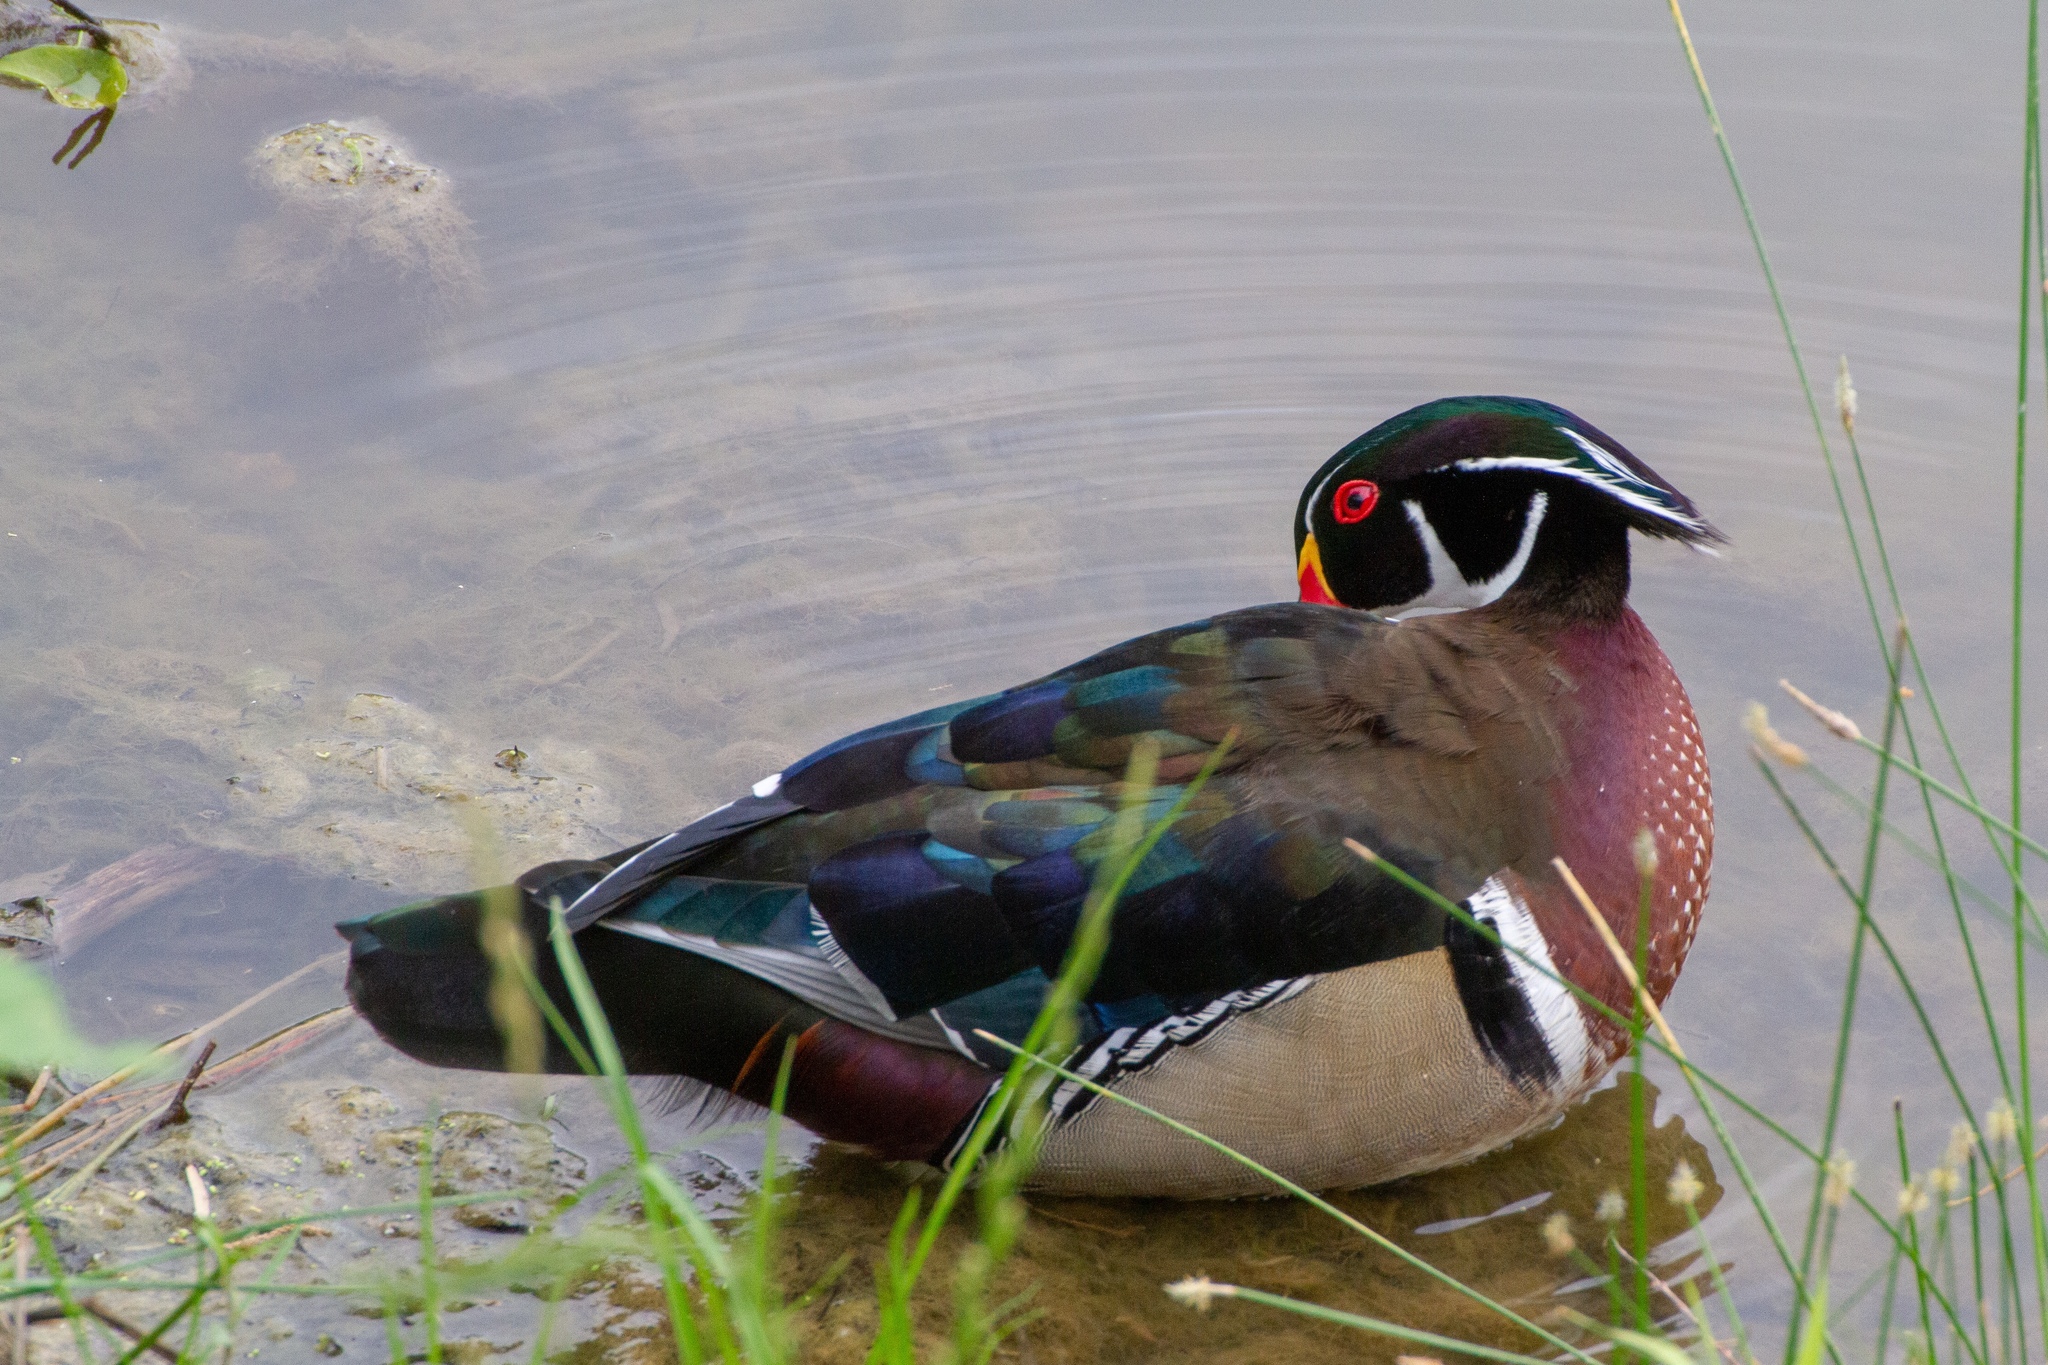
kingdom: Animalia
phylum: Chordata
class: Aves
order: Anseriformes
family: Anatidae
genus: Aix
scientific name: Aix sponsa
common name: Wood duck
